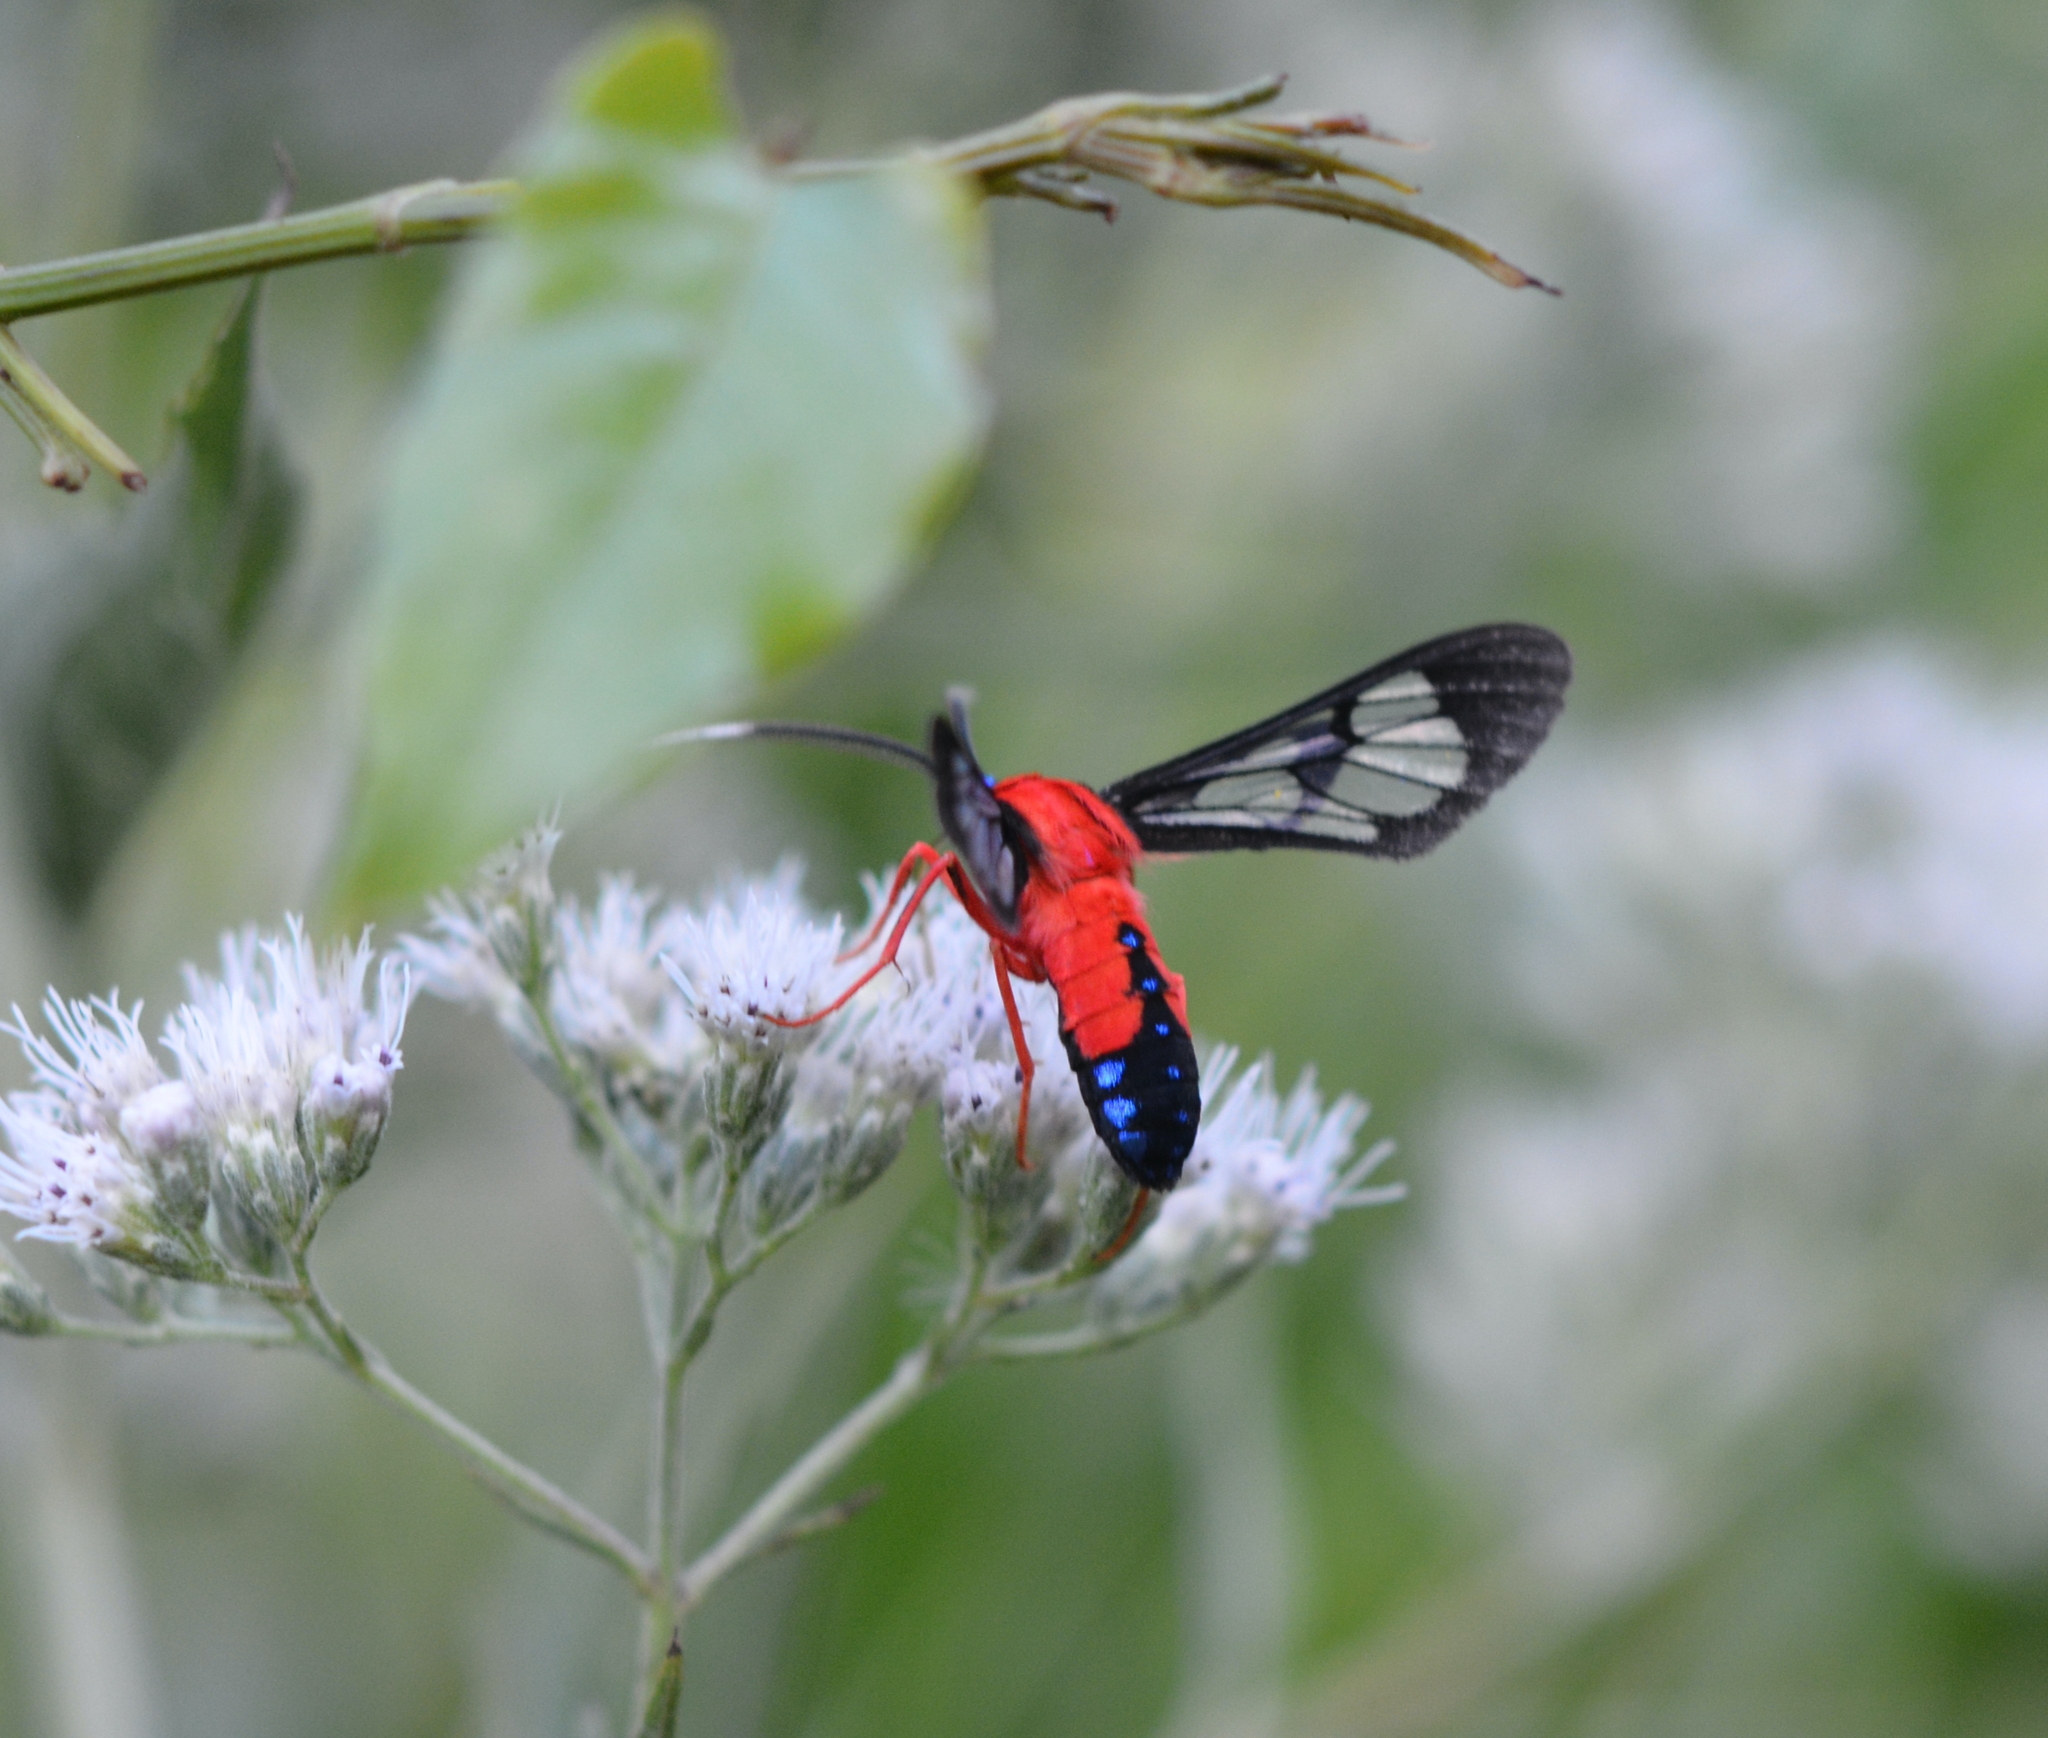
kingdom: Animalia
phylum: Arthropoda
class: Insecta
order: Lepidoptera
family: Erebidae
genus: Cosmosoma
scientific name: Cosmosoma myrodora
